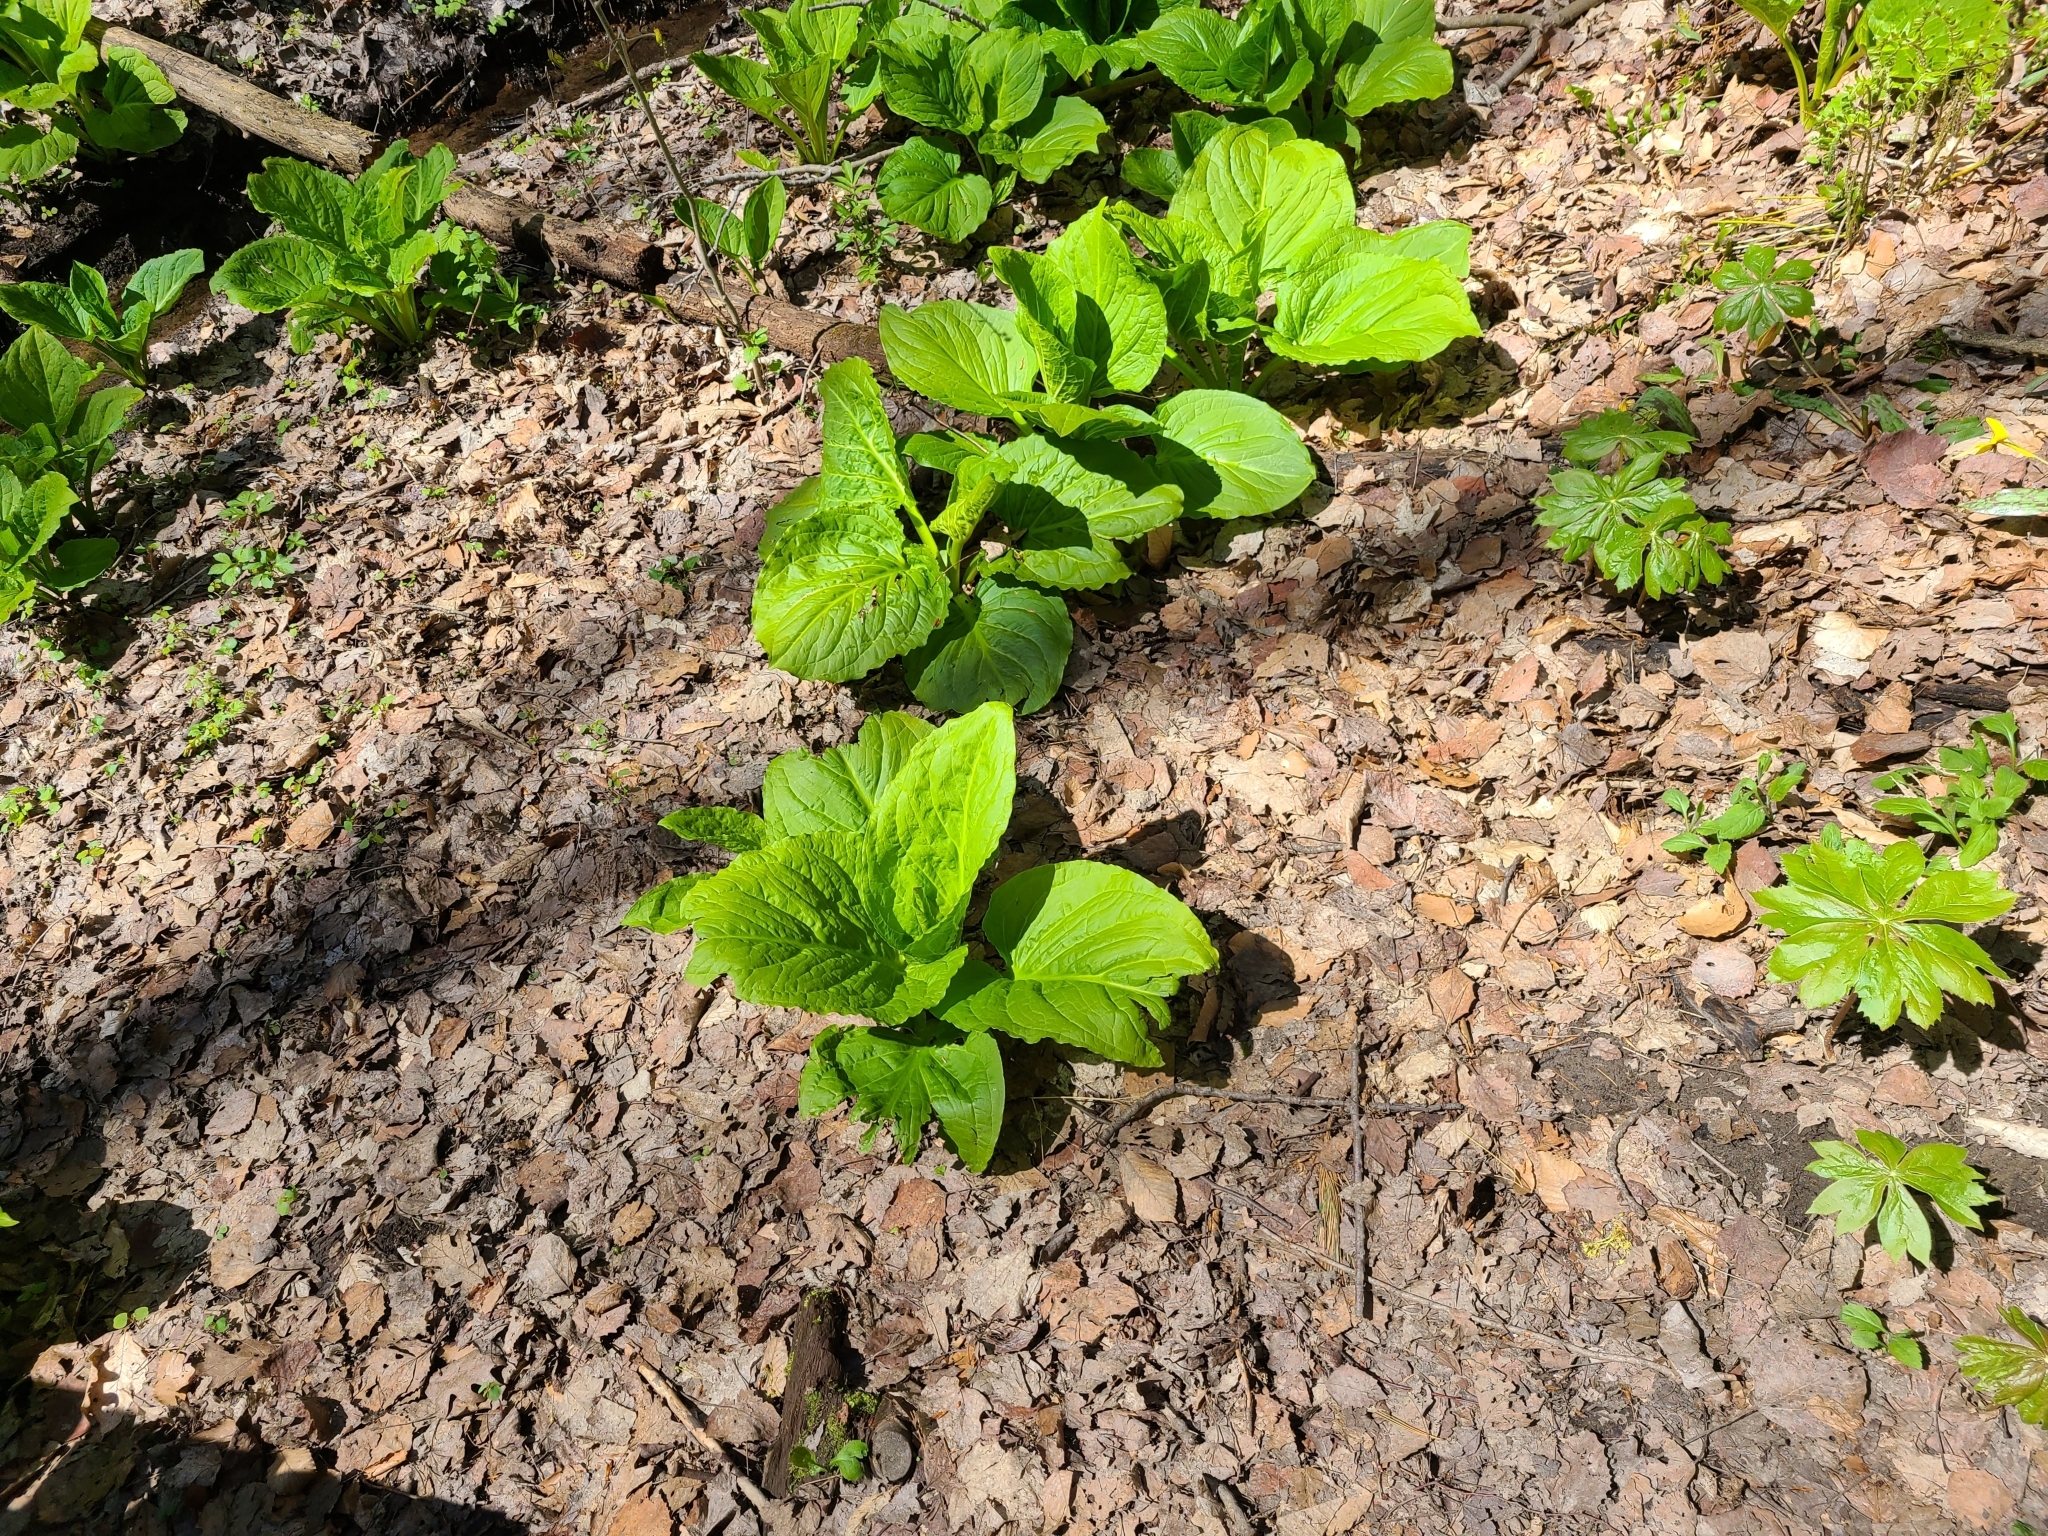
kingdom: Plantae
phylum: Tracheophyta
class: Liliopsida
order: Alismatales
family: Araceae
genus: Symplocarpus
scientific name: Symplocarpus foetidus
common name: Eastern skunk cabbage
